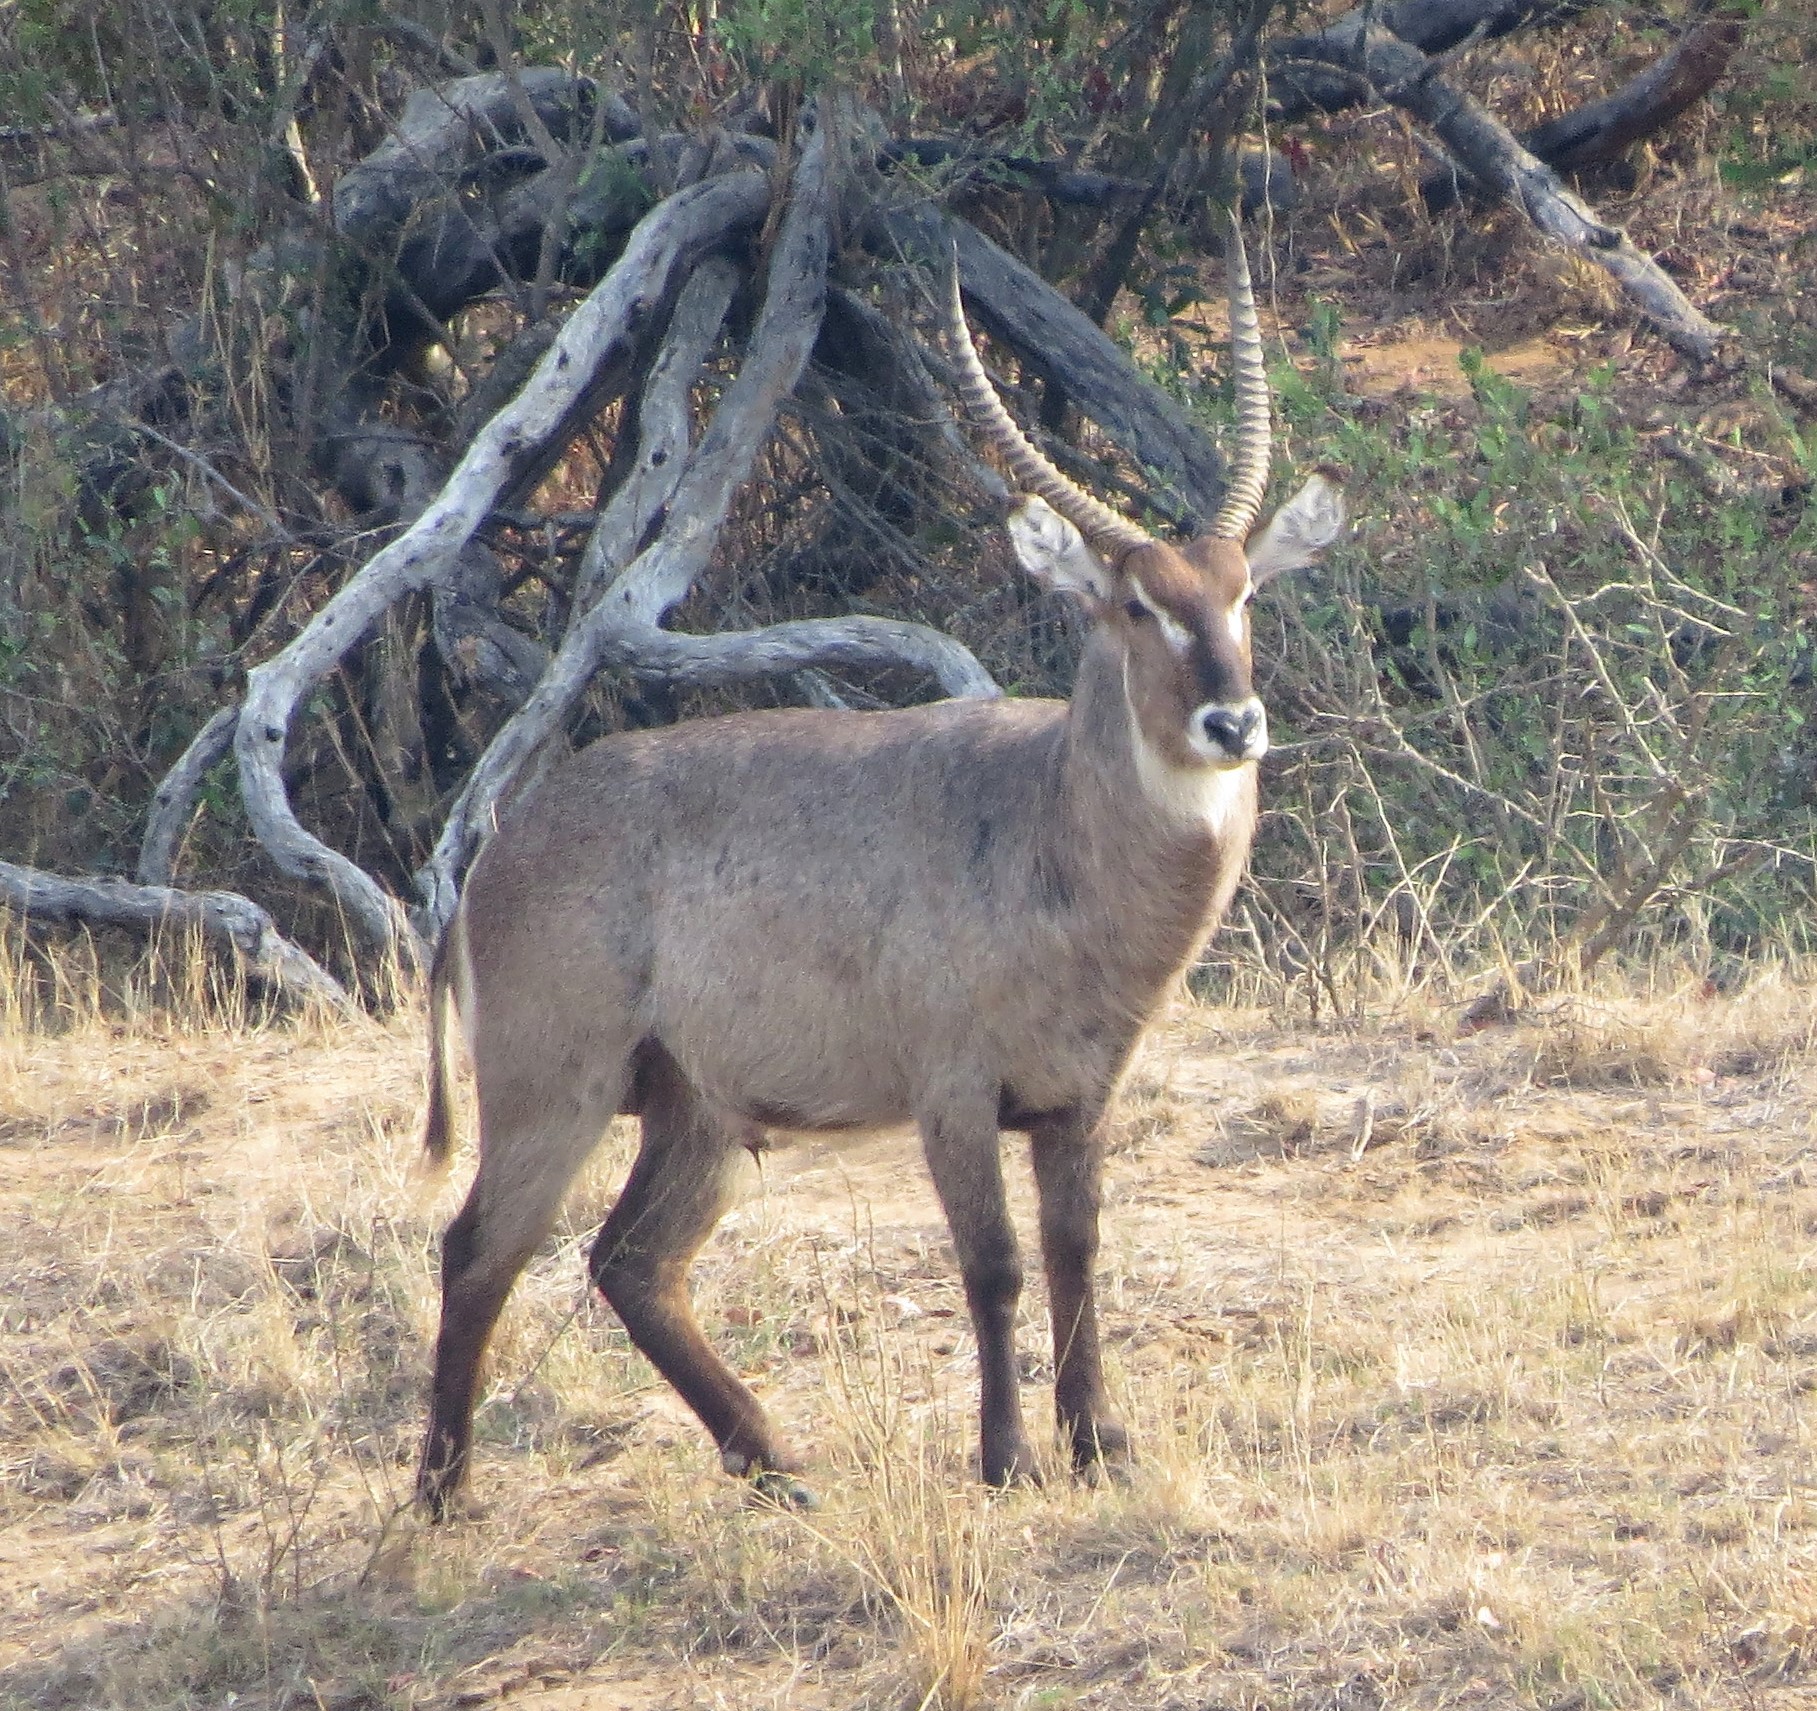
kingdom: Animalia
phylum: Chordata
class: Mammalia
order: Artiodactyla
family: Bovidae
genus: Kobus
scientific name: Kobus ellipsiprymnus
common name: Waterbuck
